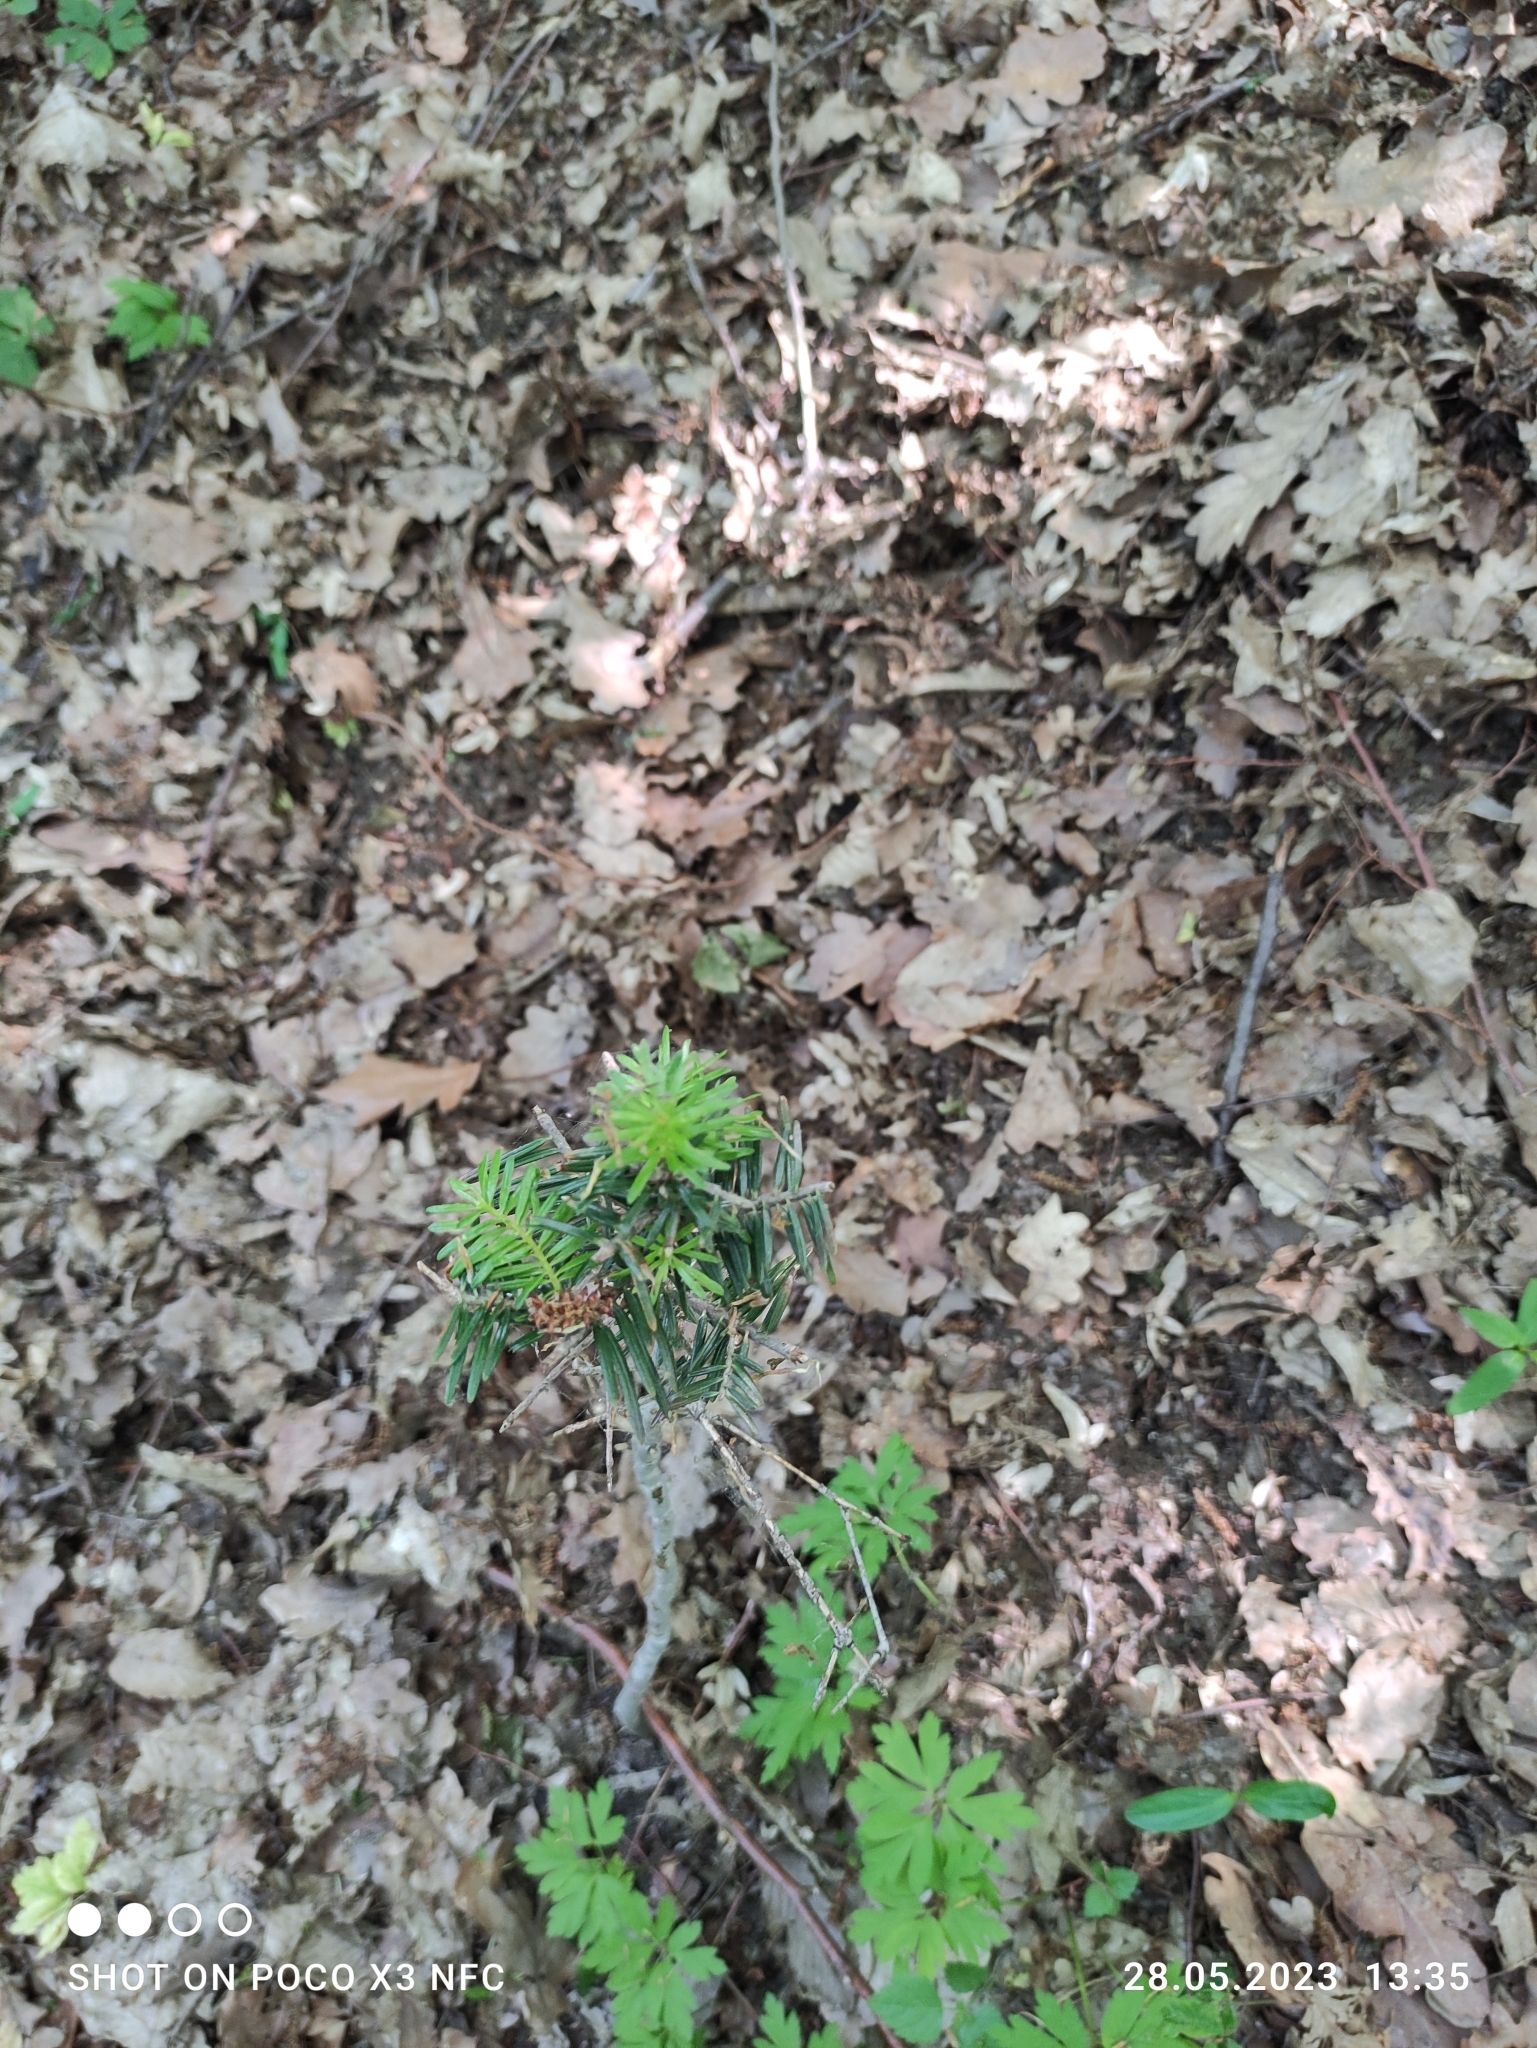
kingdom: Plantae
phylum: Tracheophyta
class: Pinopsida
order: Pinales
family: Pinaceae
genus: Abies
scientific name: Abies alba
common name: Silver fir
